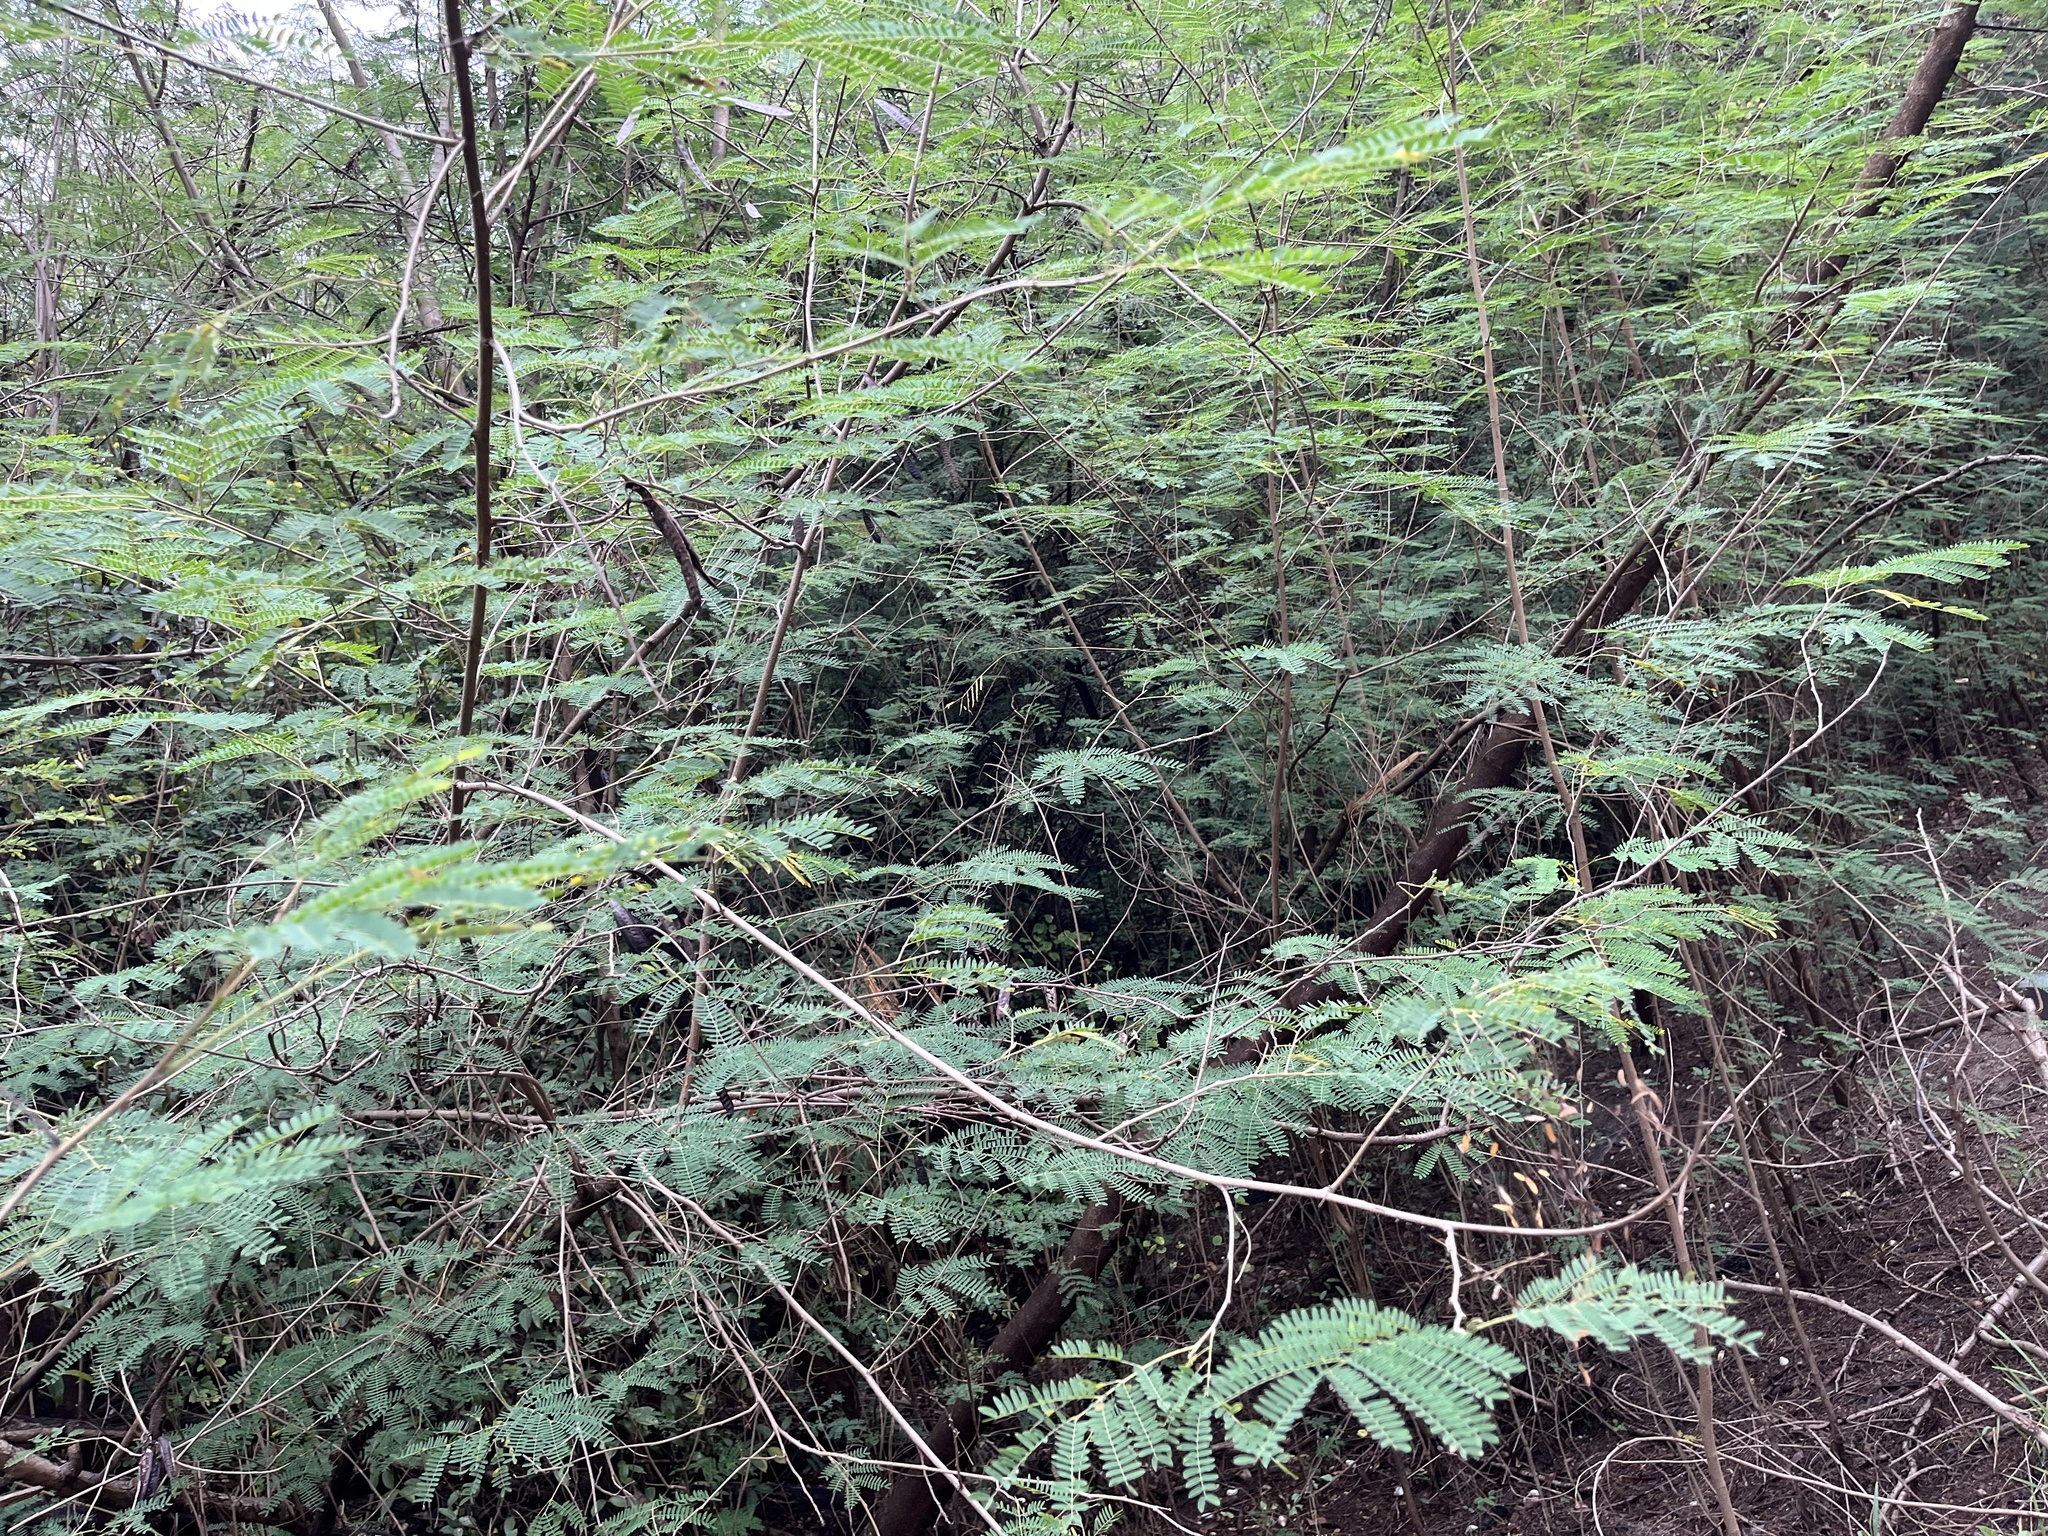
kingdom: Plantae
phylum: Tracheophyta
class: Magnoliopsida
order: Sapindales
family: Sapindaceae
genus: Sapindus
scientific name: Sapindus mukorossi
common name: Chinese soapberry
